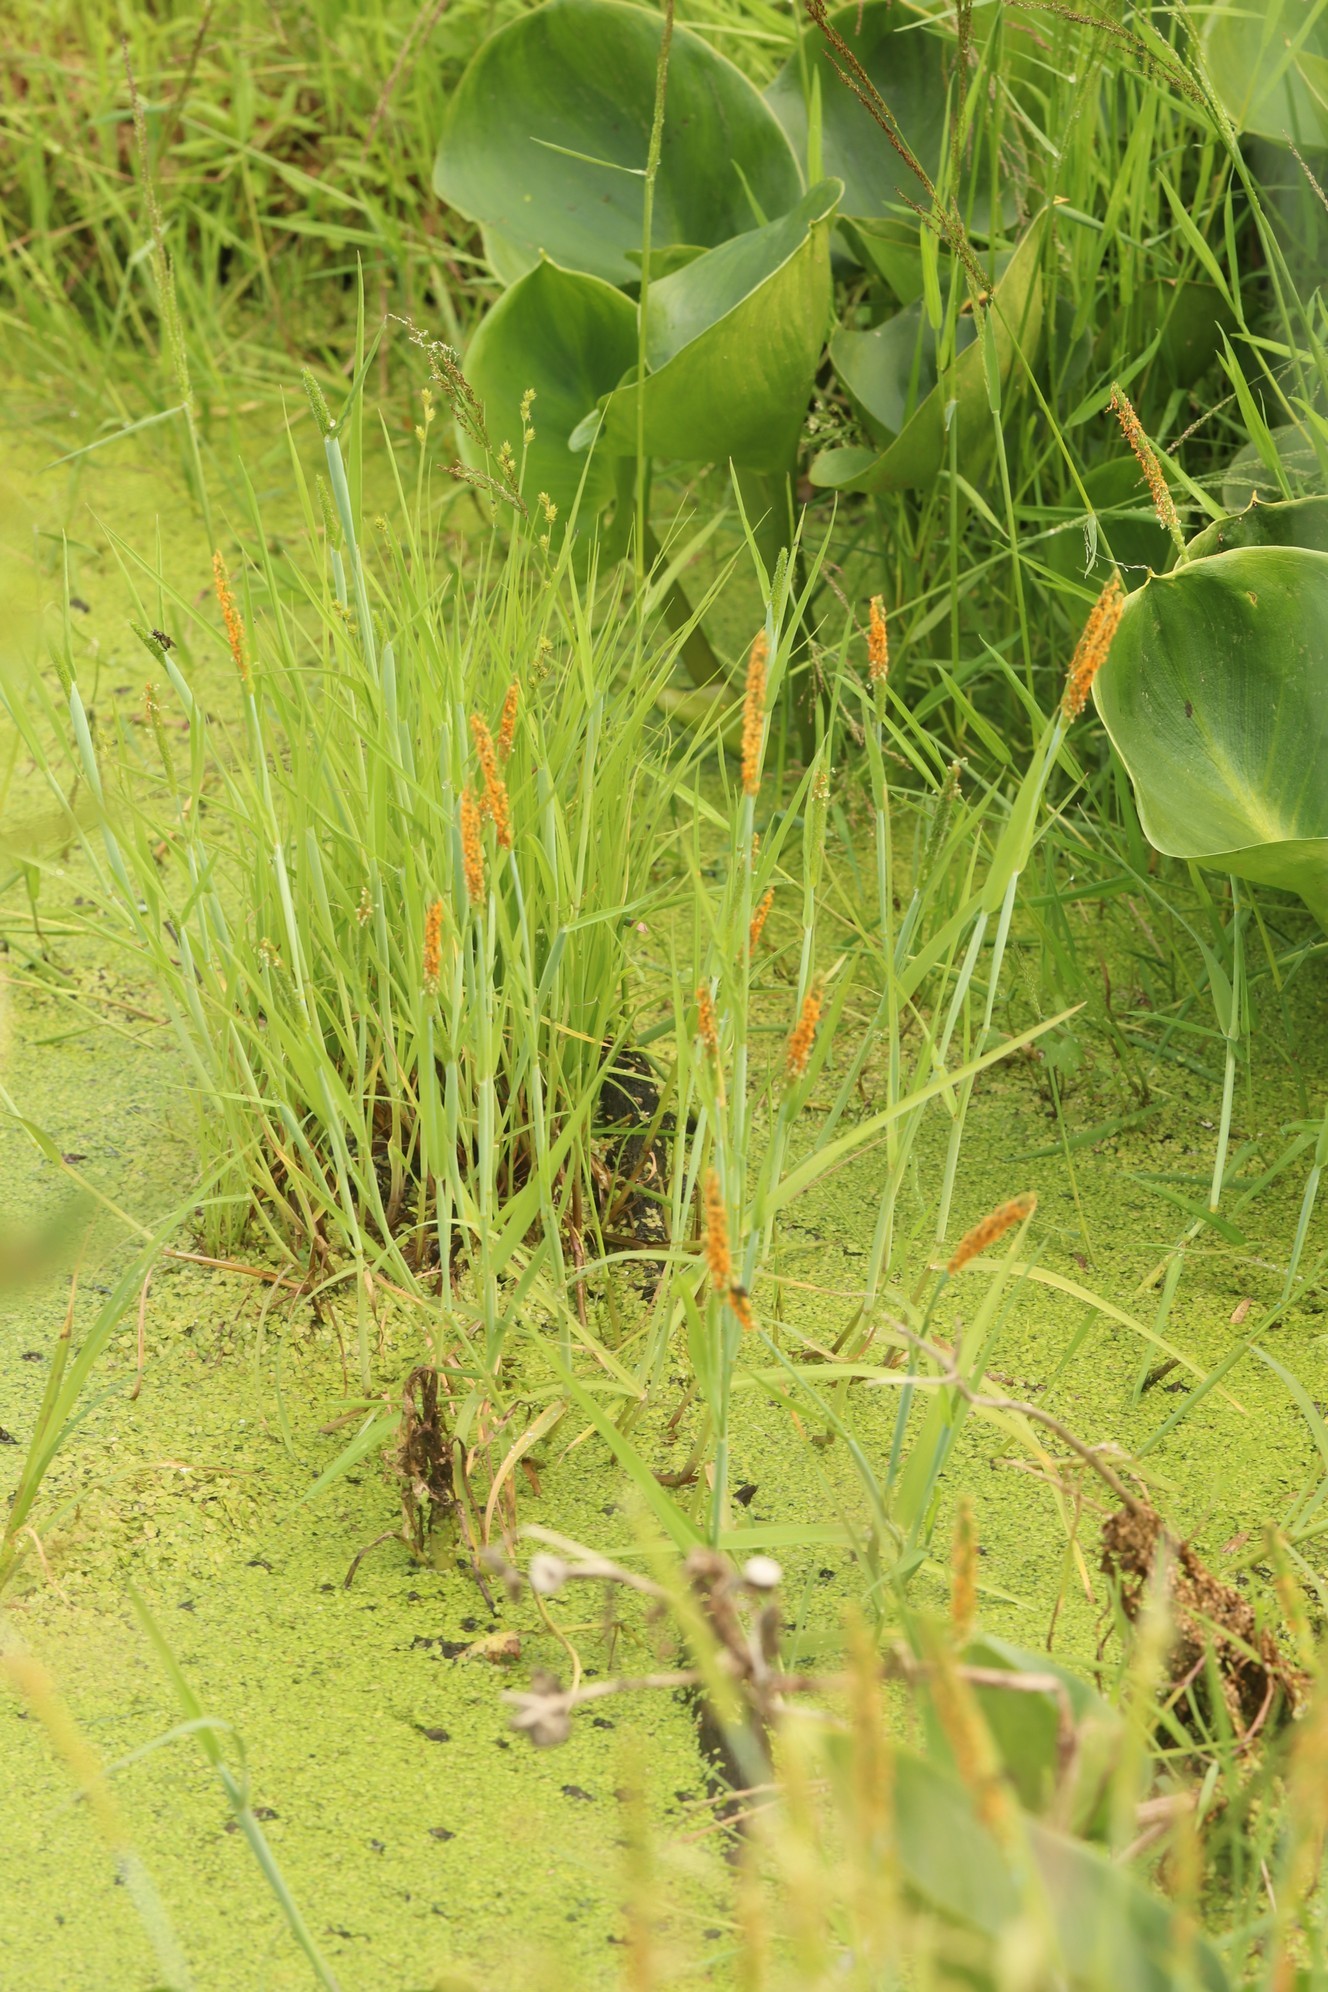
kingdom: Plantae
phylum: Tracheophyta
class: Liliopsida
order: Poales
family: Poaceae
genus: Alopecurus
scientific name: Alopecurus aequalis
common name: Orange foxtail
